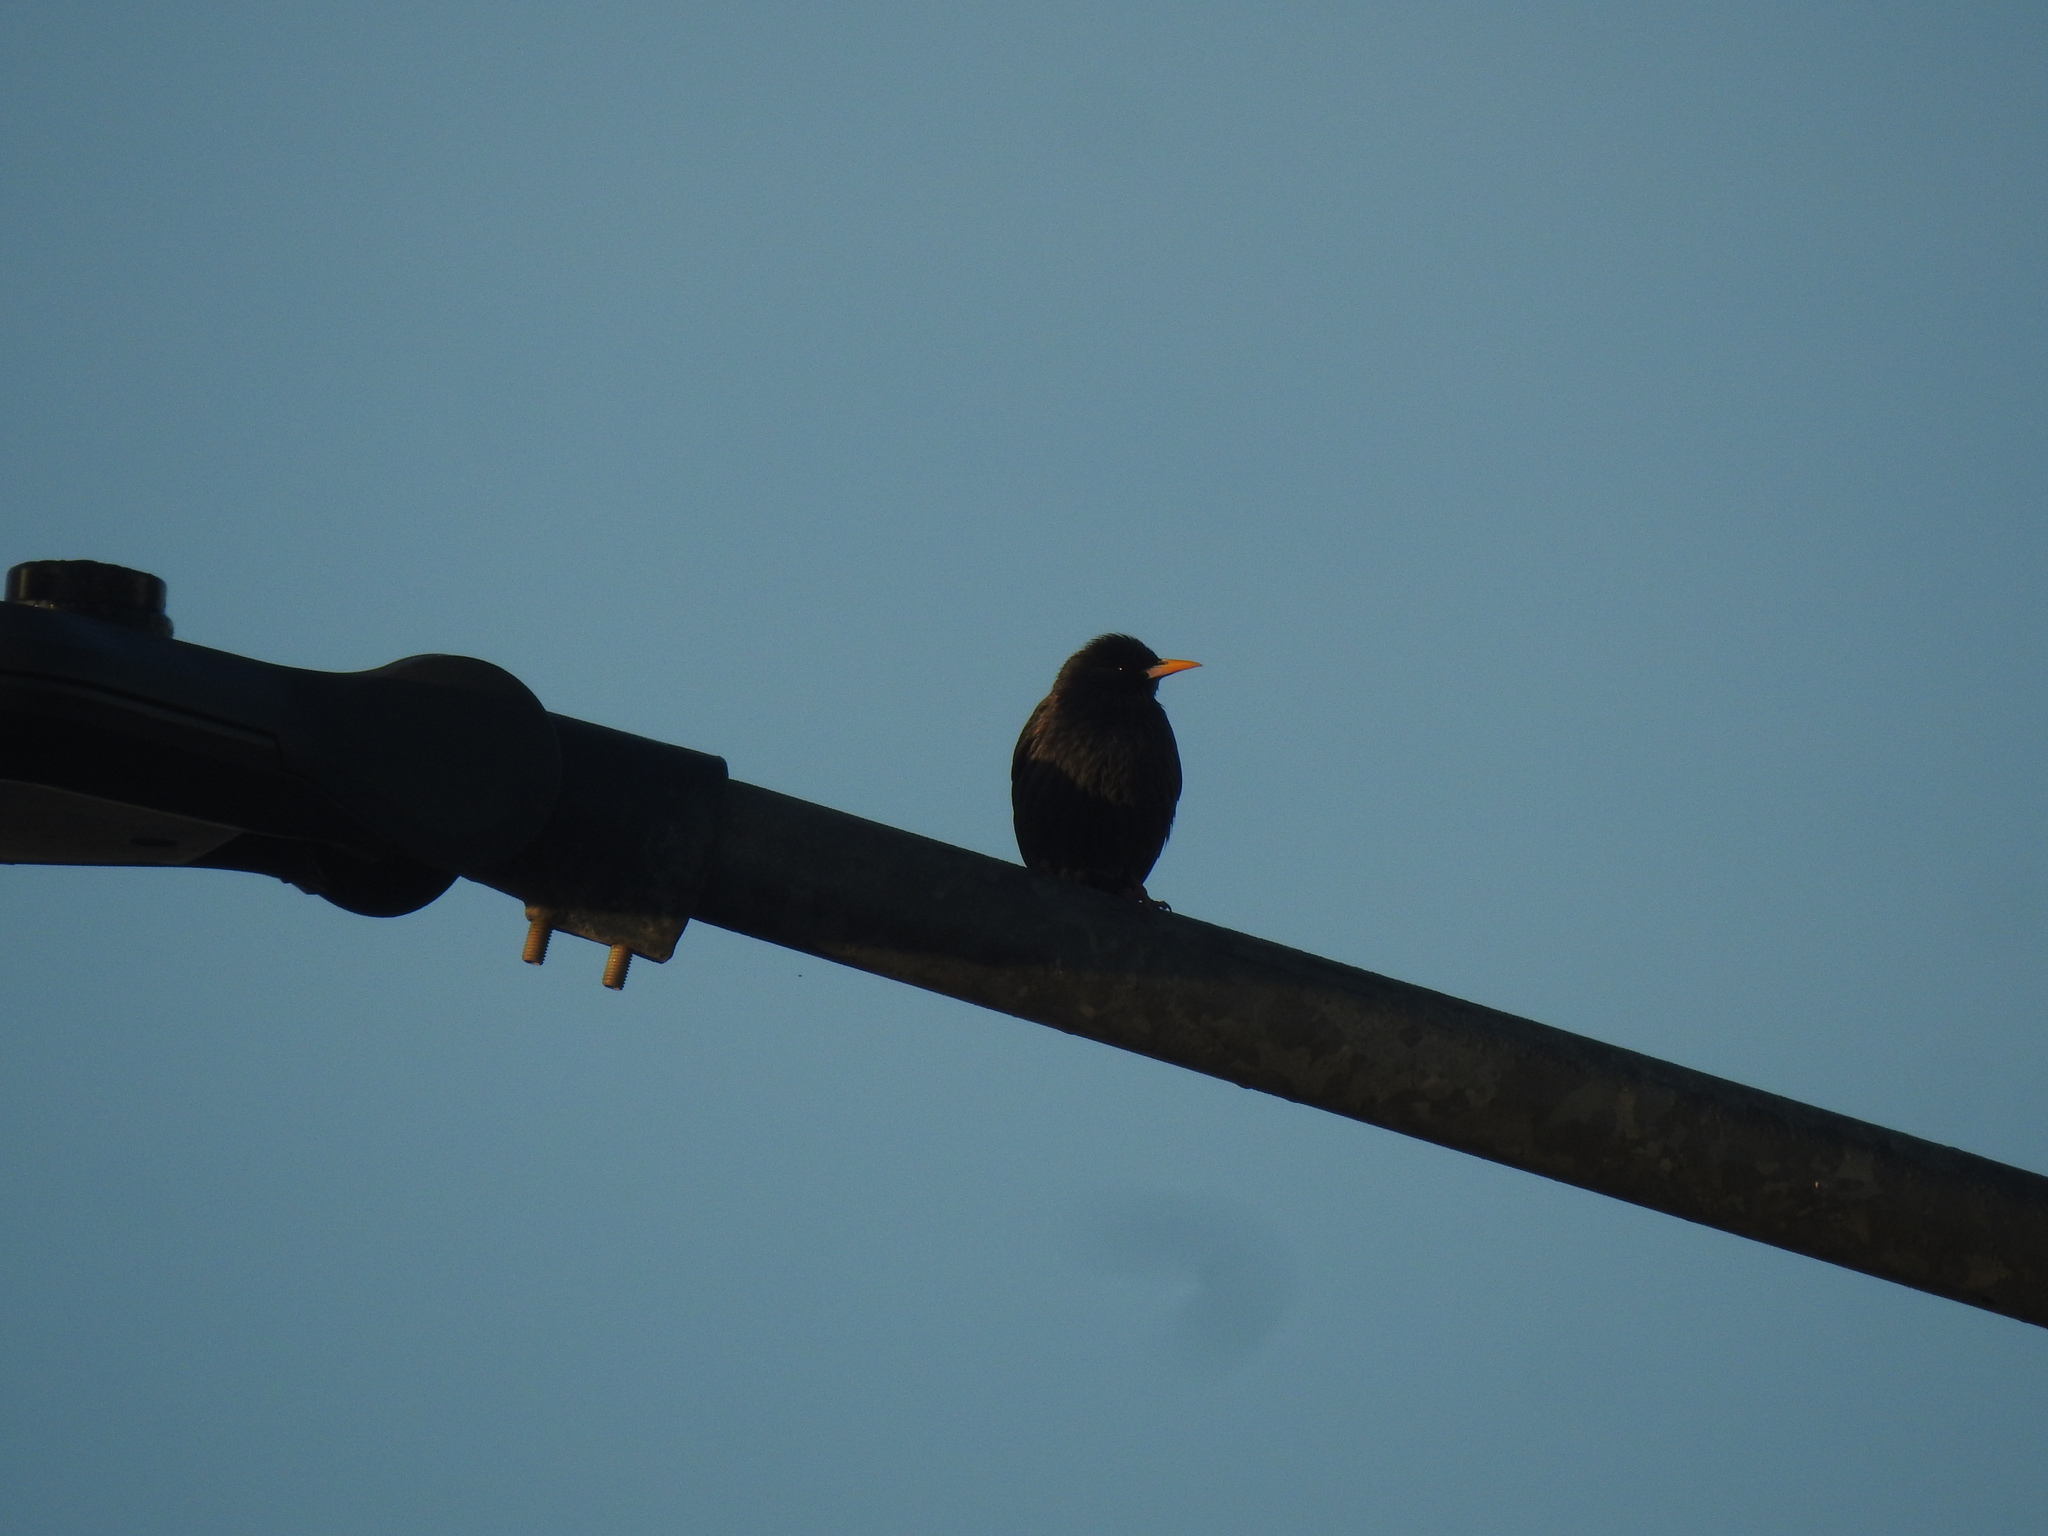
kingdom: Animalia
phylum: Chordata
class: Aves
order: Passeriformes
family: Sturnidae
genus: Sturnus
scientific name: Sturnus unicolor
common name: Spotless starling
